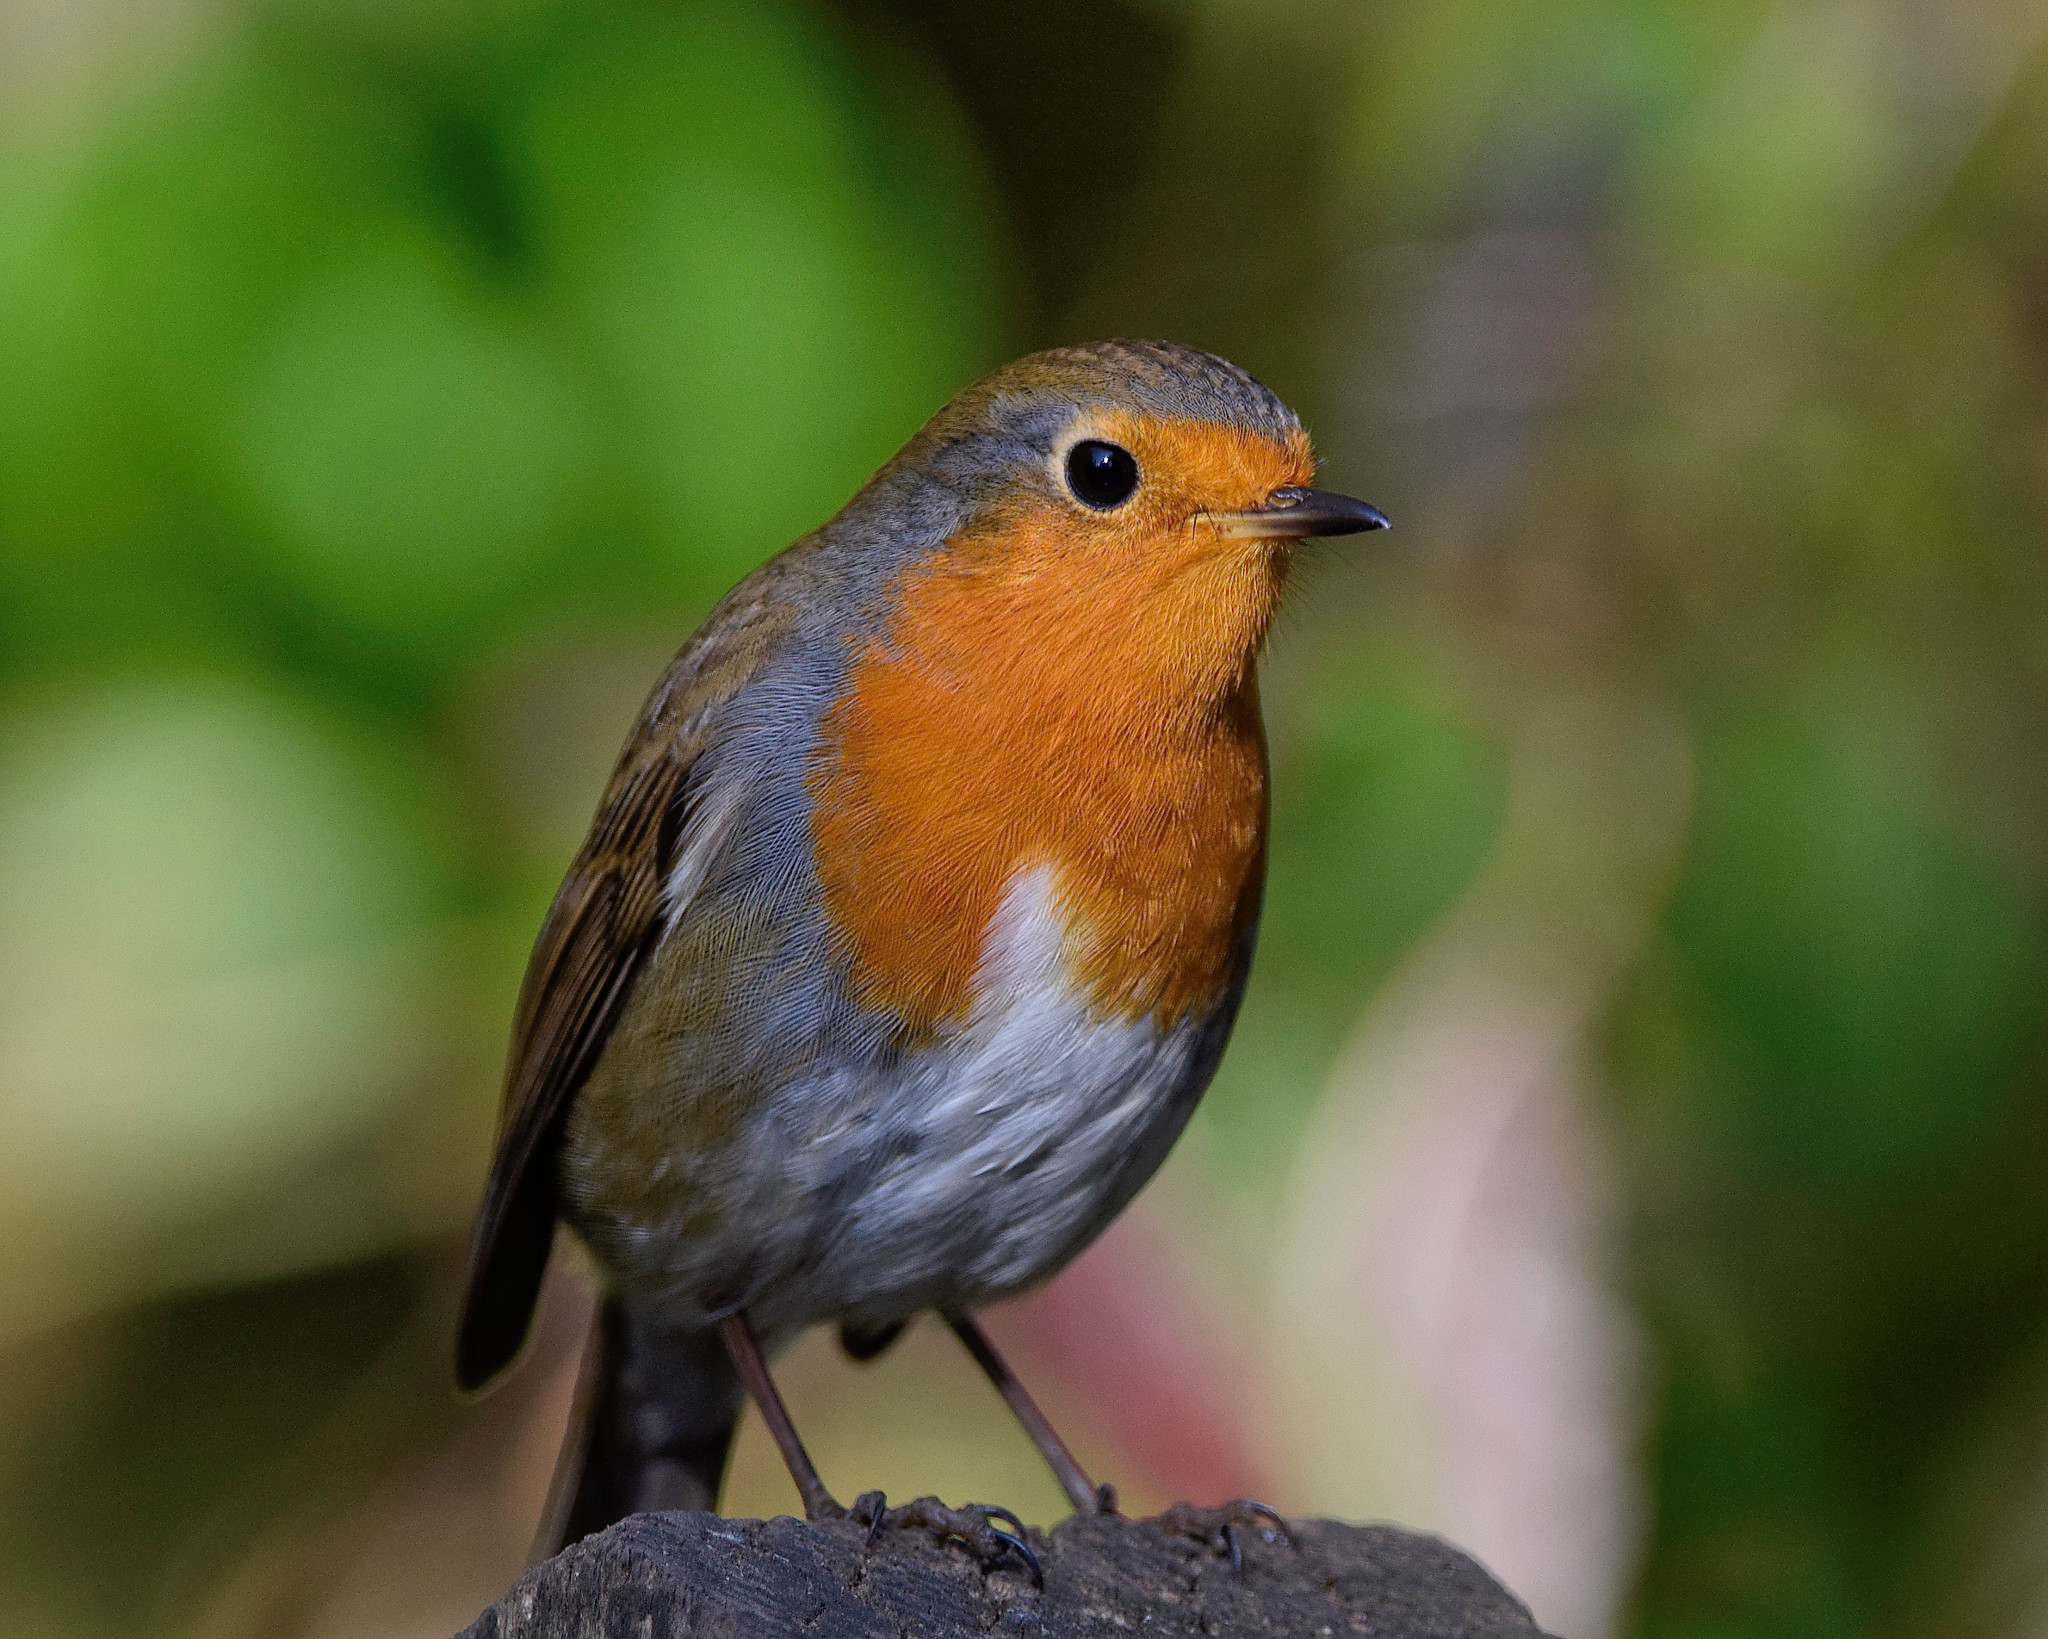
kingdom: Animalia
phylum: Chordata
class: Aves
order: Passeriformes
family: Muscicapidae
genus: Erithacus
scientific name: Erithacus rubecula
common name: European robin
